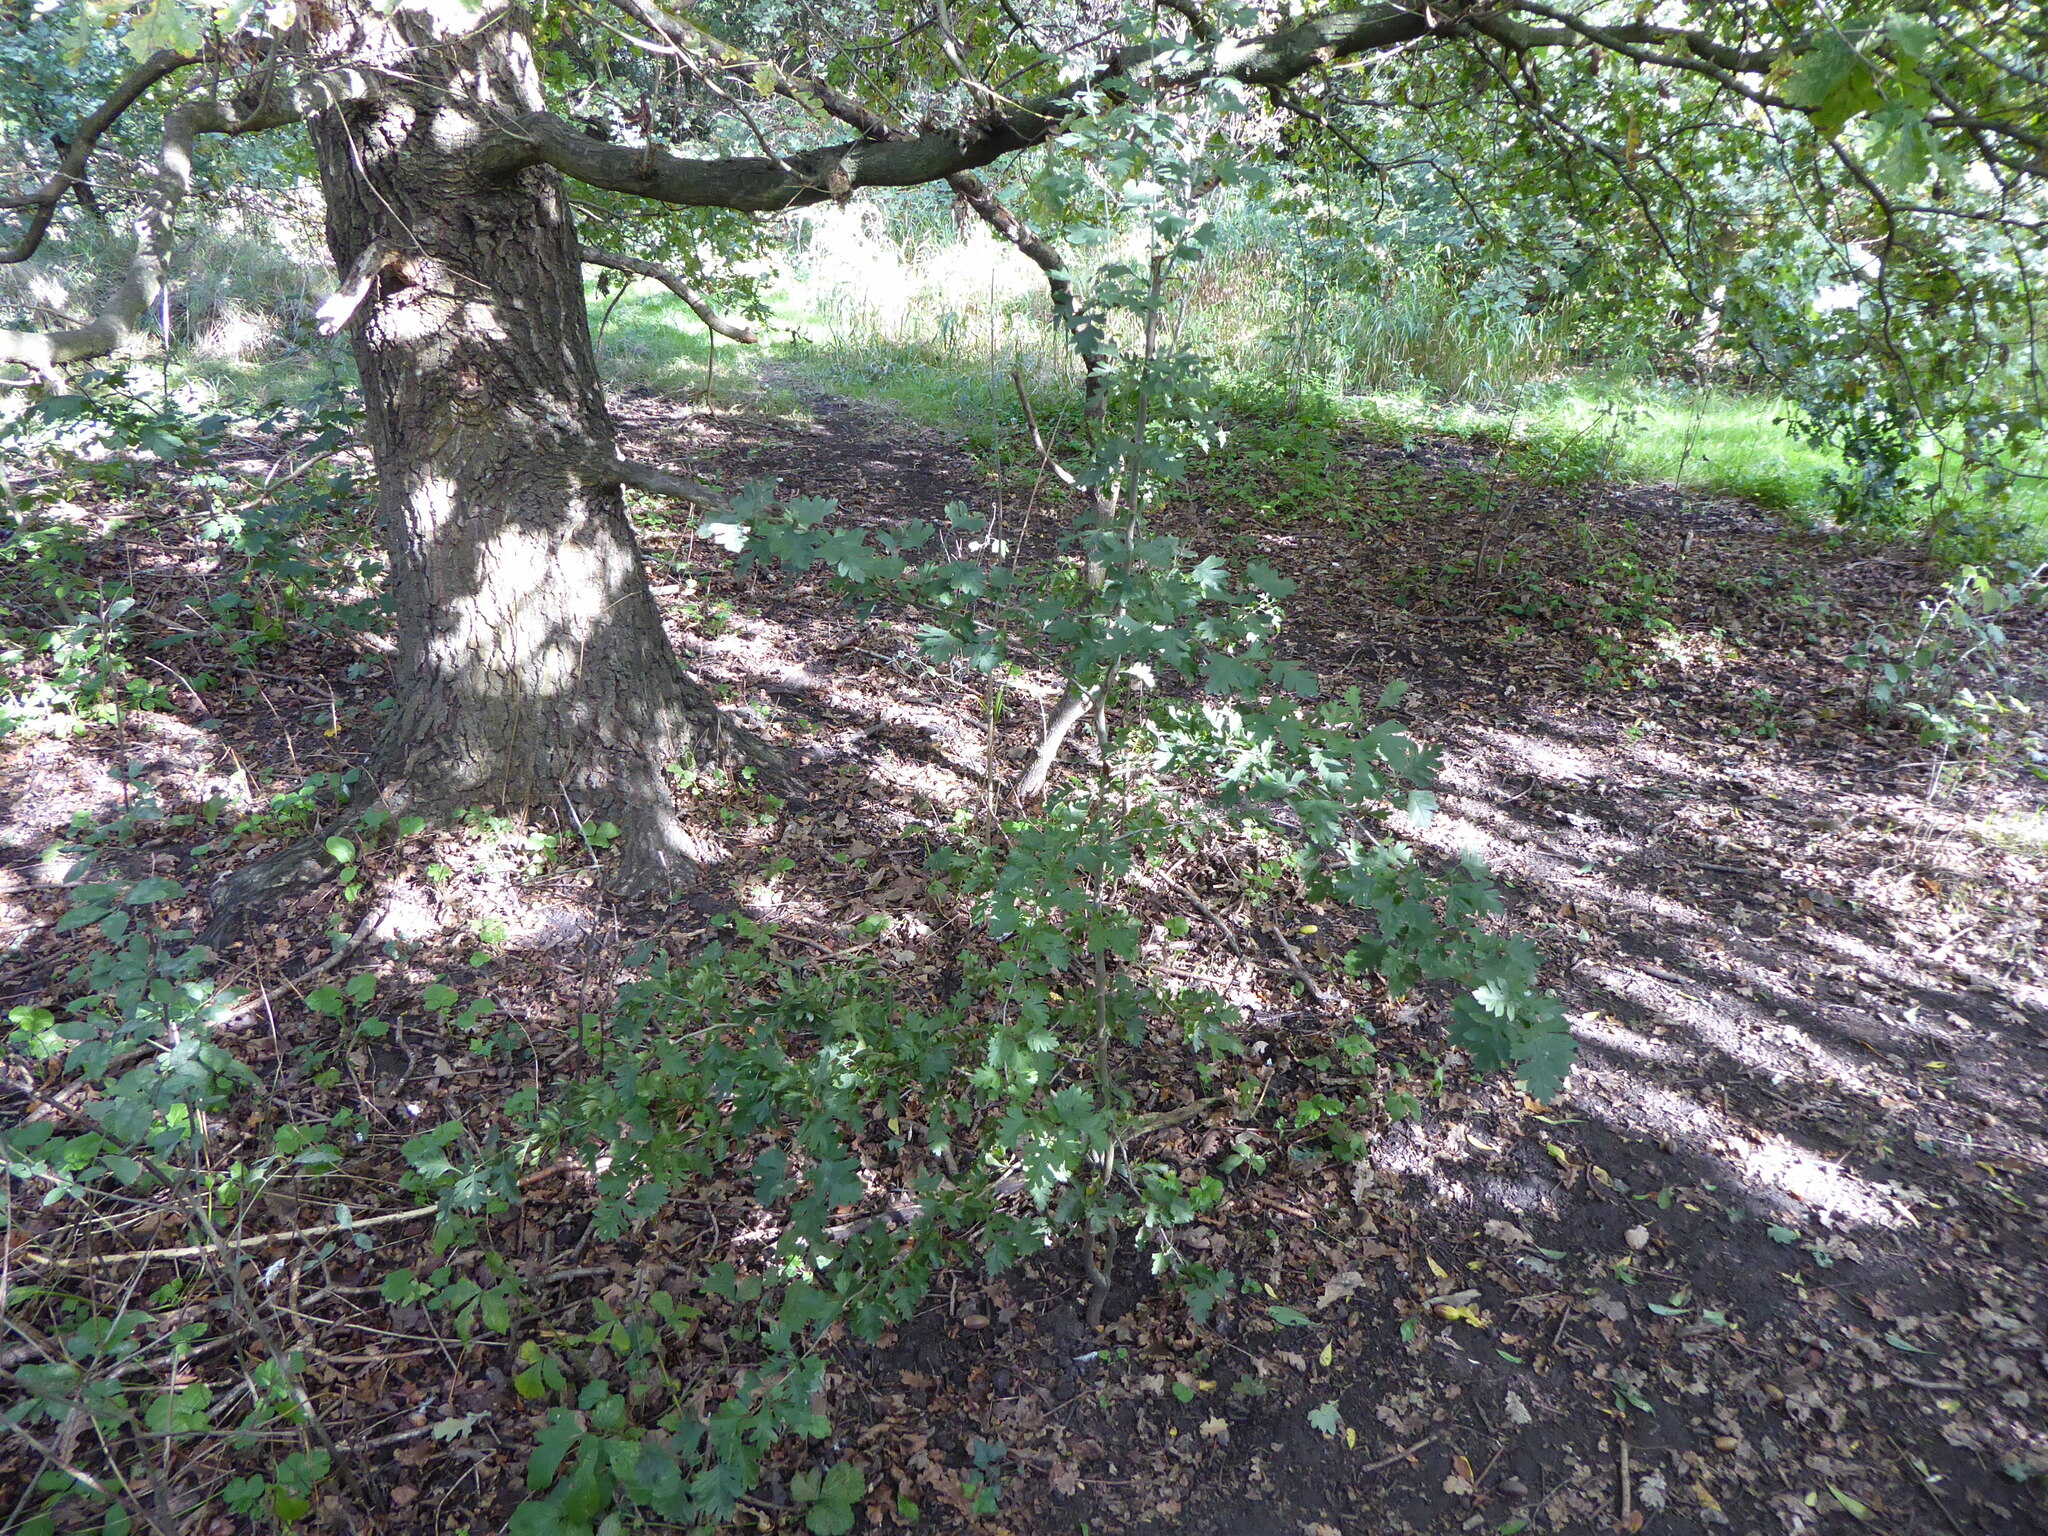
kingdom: Plantae
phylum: Tracheophyta
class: Magnoliopsida
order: Rosales
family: Rosaceae
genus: Crataegus
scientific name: Crataegus monogyna
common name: Hawthorn
